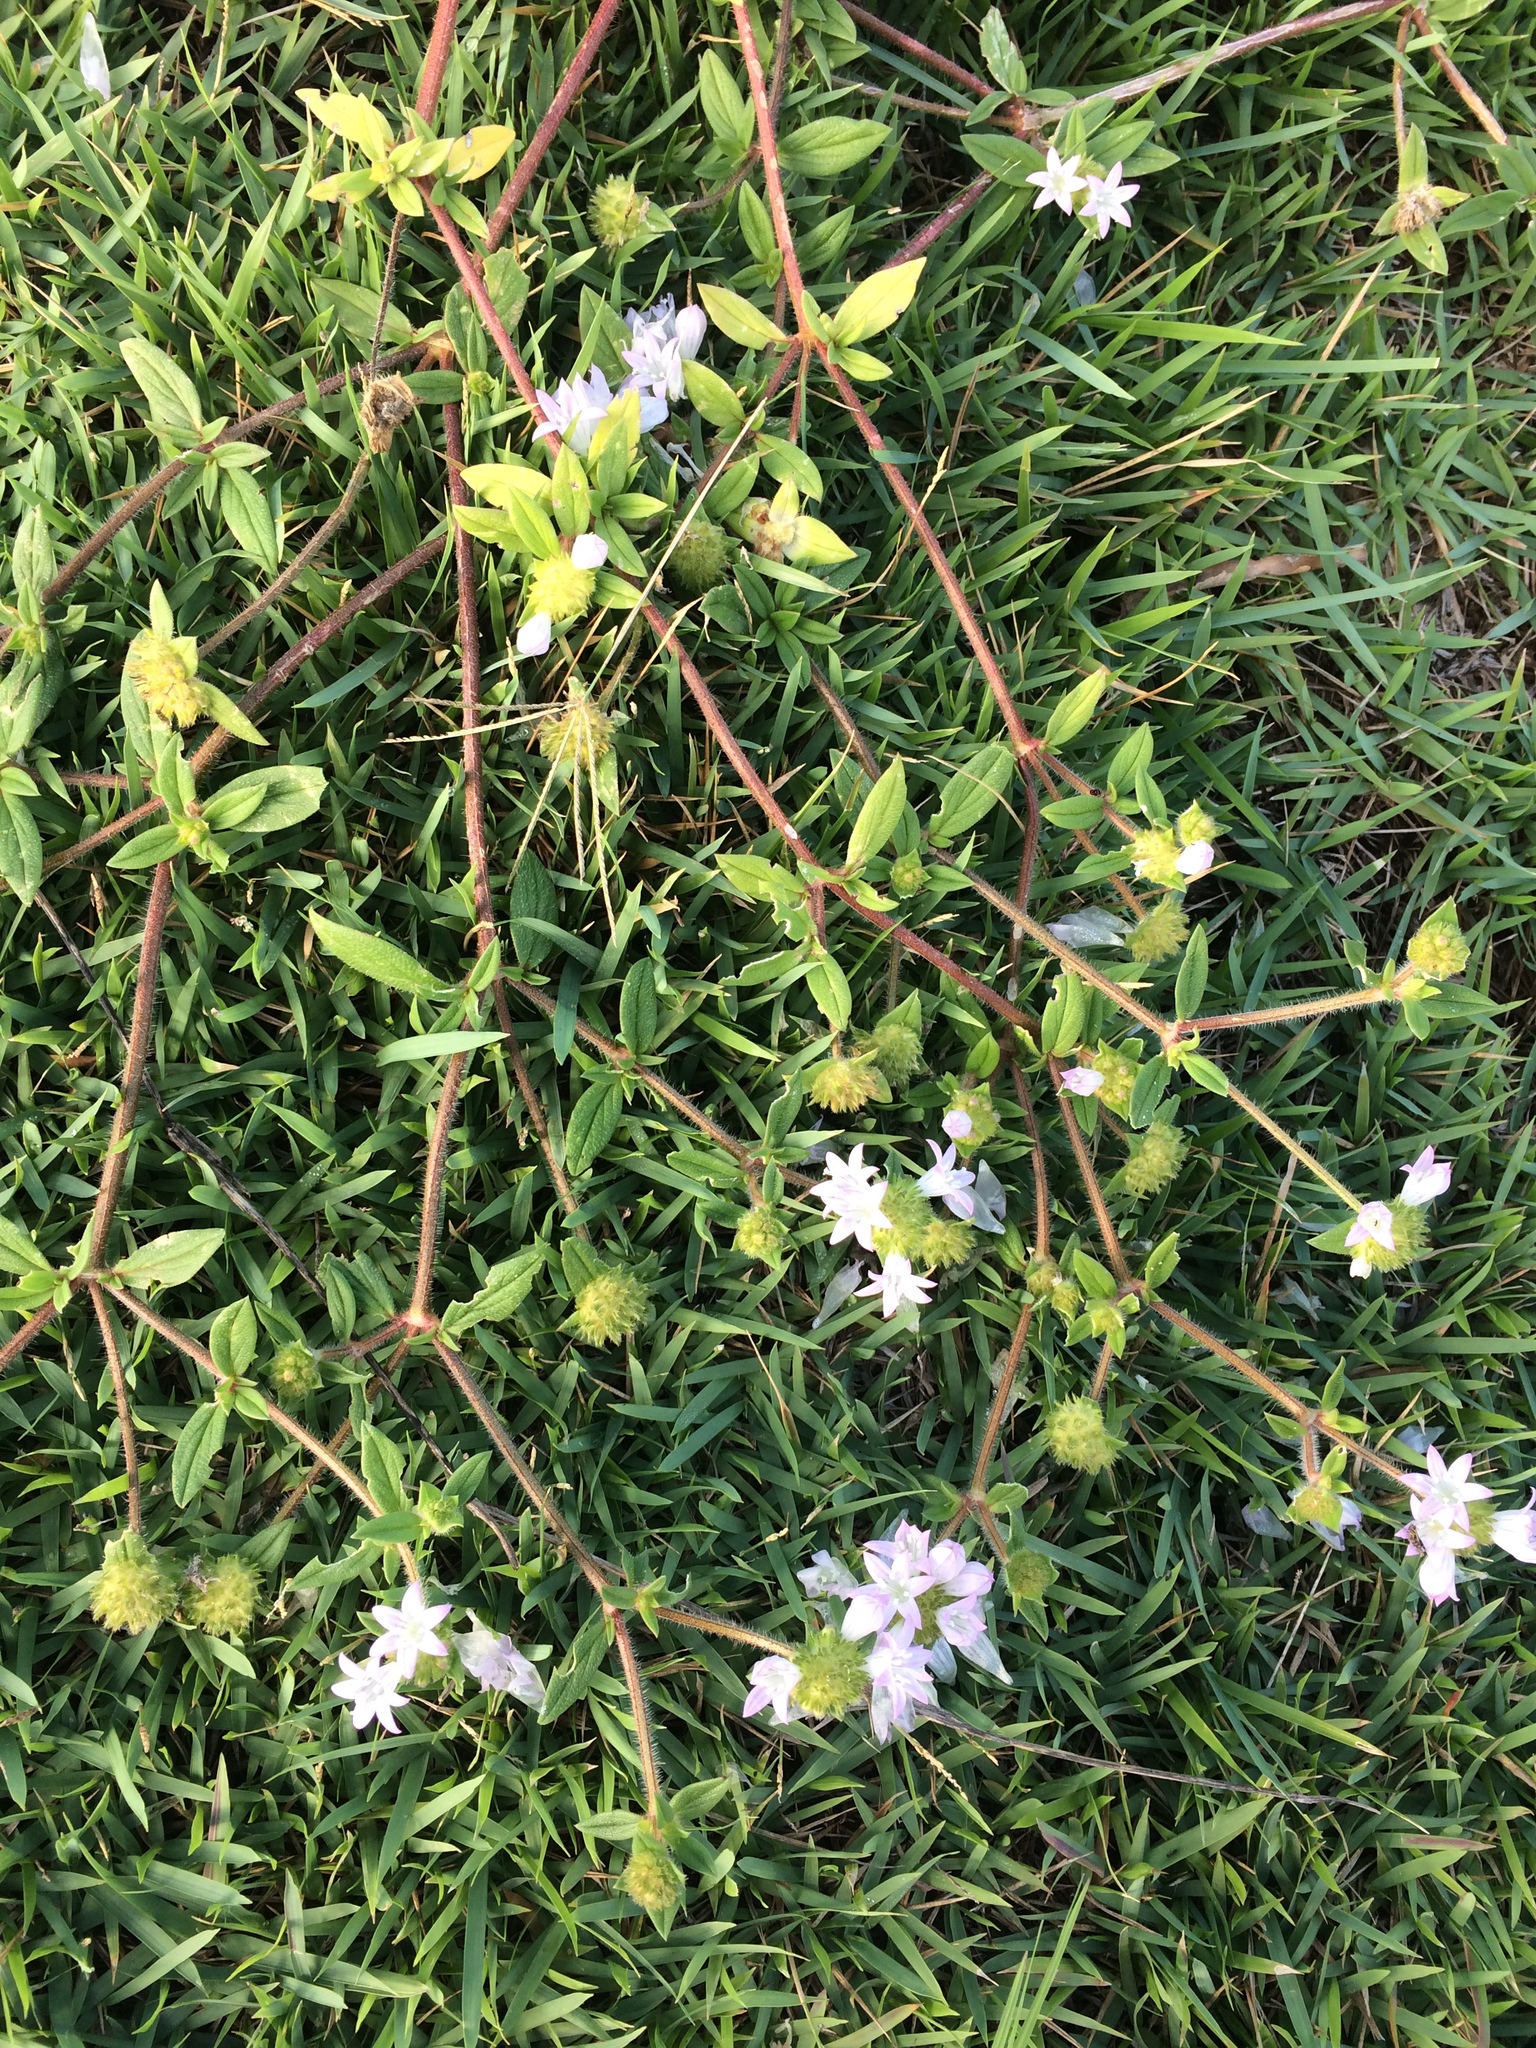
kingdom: Plantae
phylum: Tracheophyta
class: Magnoliopsida
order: Gentianales
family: Rubiaceae
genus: Richardia
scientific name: Richardia grandiflora
